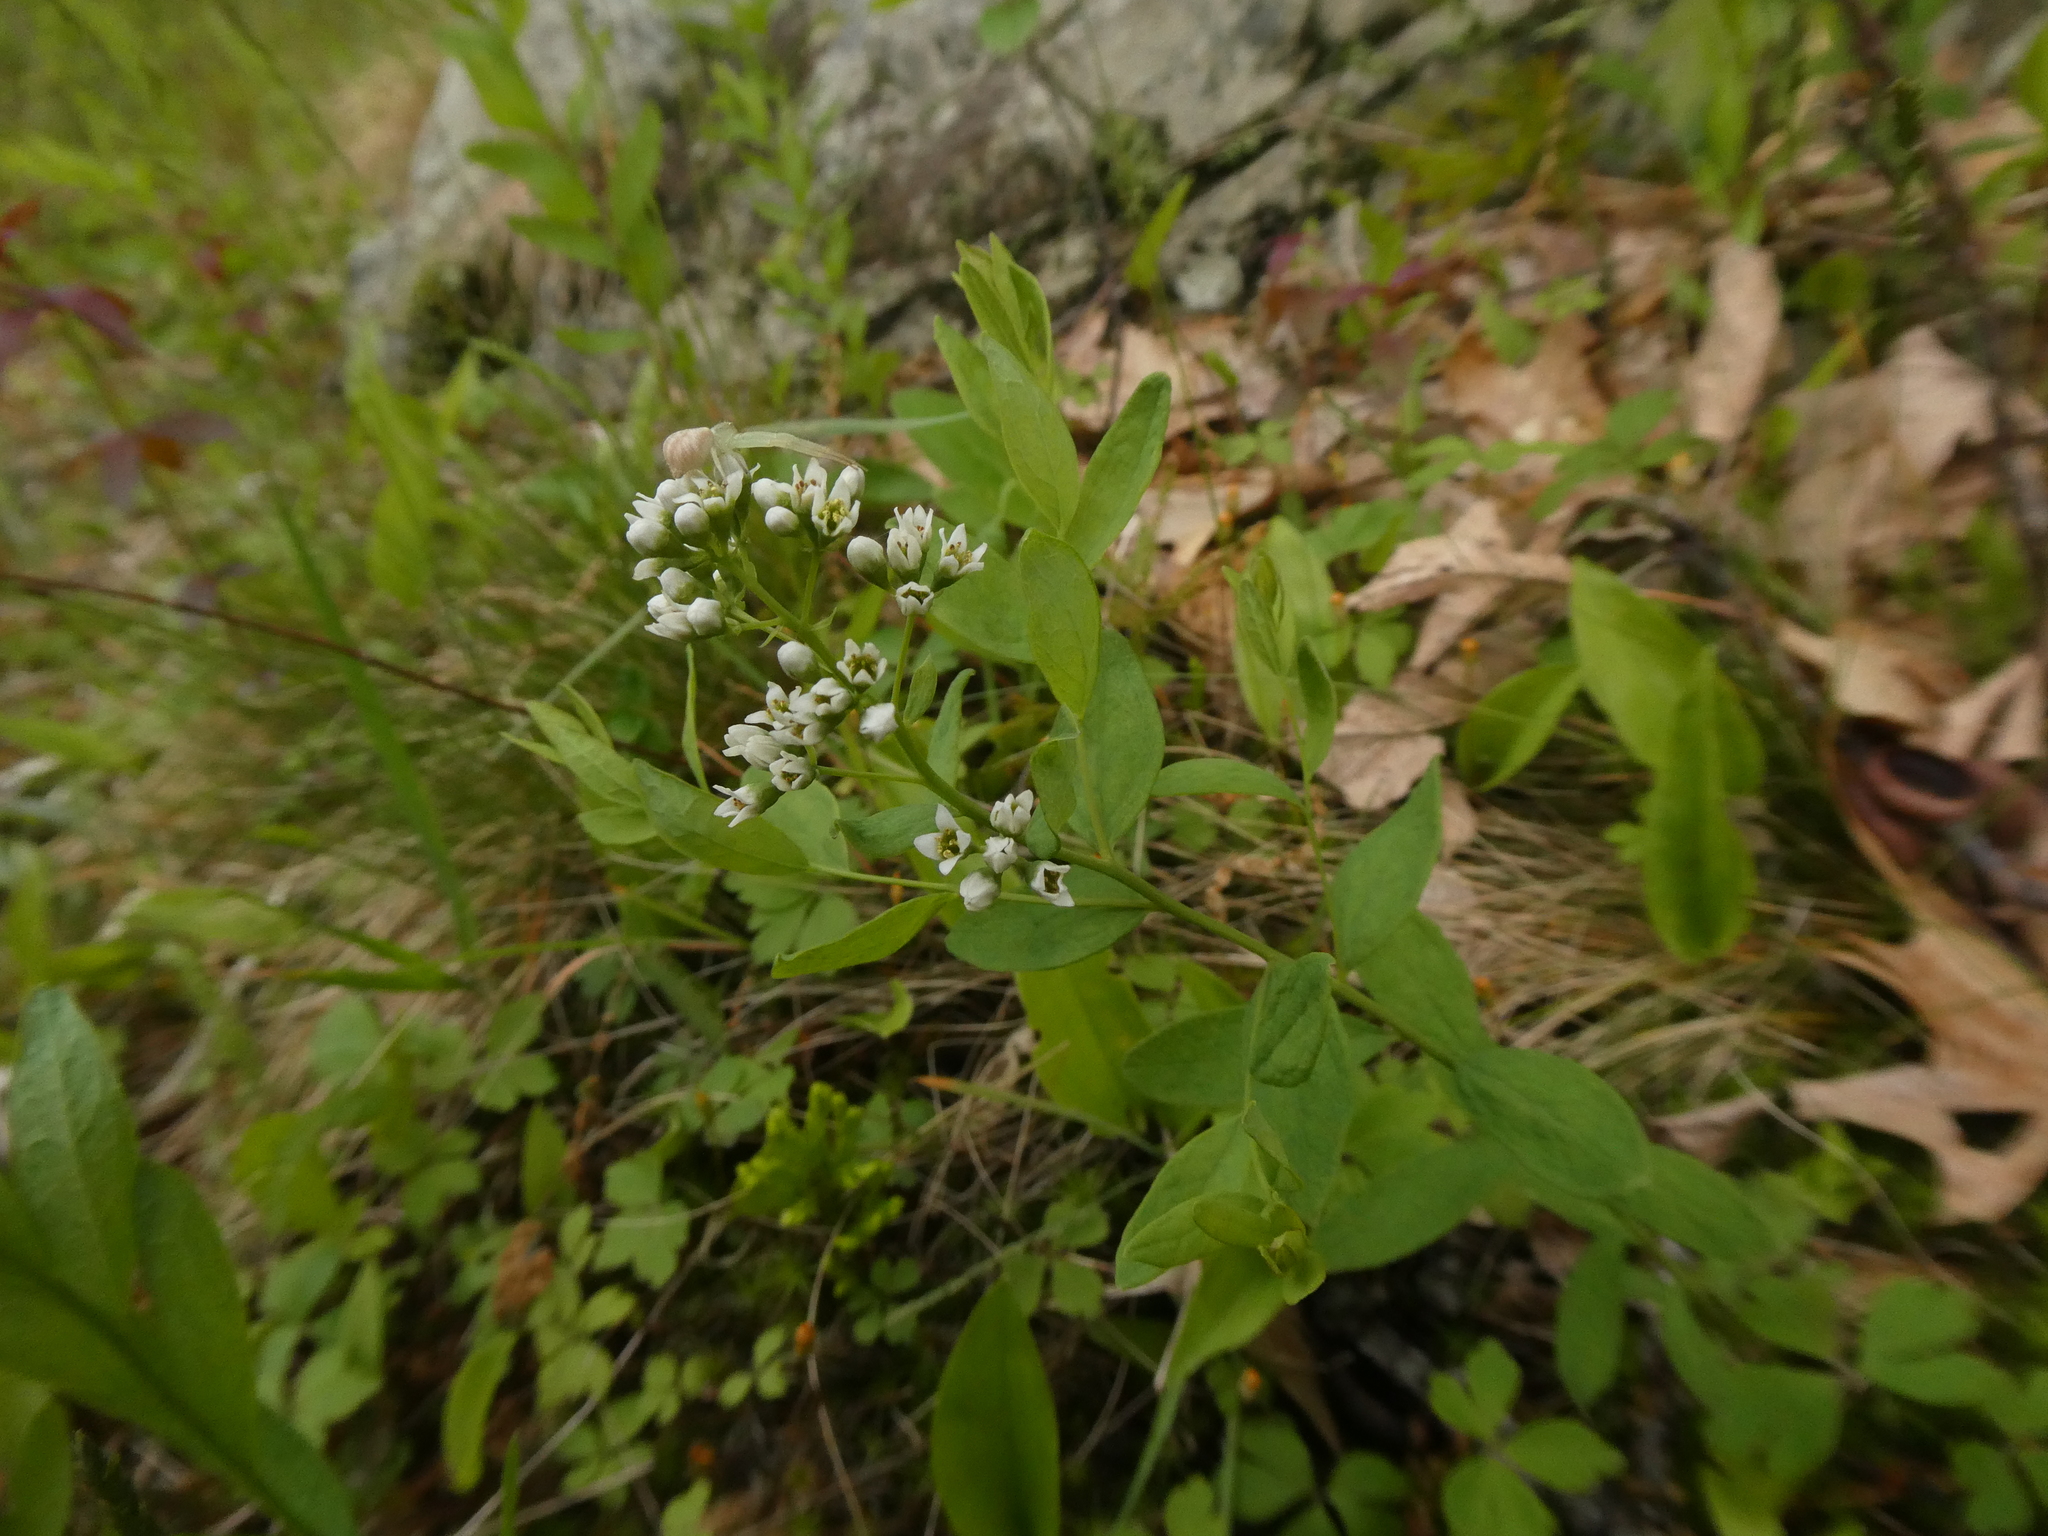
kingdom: Plantae
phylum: Tracheophyta
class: Magnoliopsida
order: Santalales
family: Comandraceae
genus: Comandra
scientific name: Comandra umbellata
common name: Bastard toadflax
